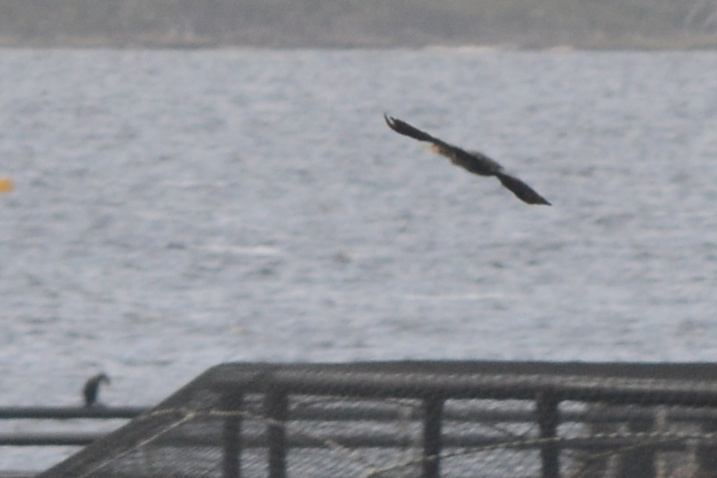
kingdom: Animalia
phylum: Chordata
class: Aves
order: Suliformes
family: Phalacrocoracidae
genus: Phalacrocorax
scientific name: Phalacrocorax carbo
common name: Great cormorant
